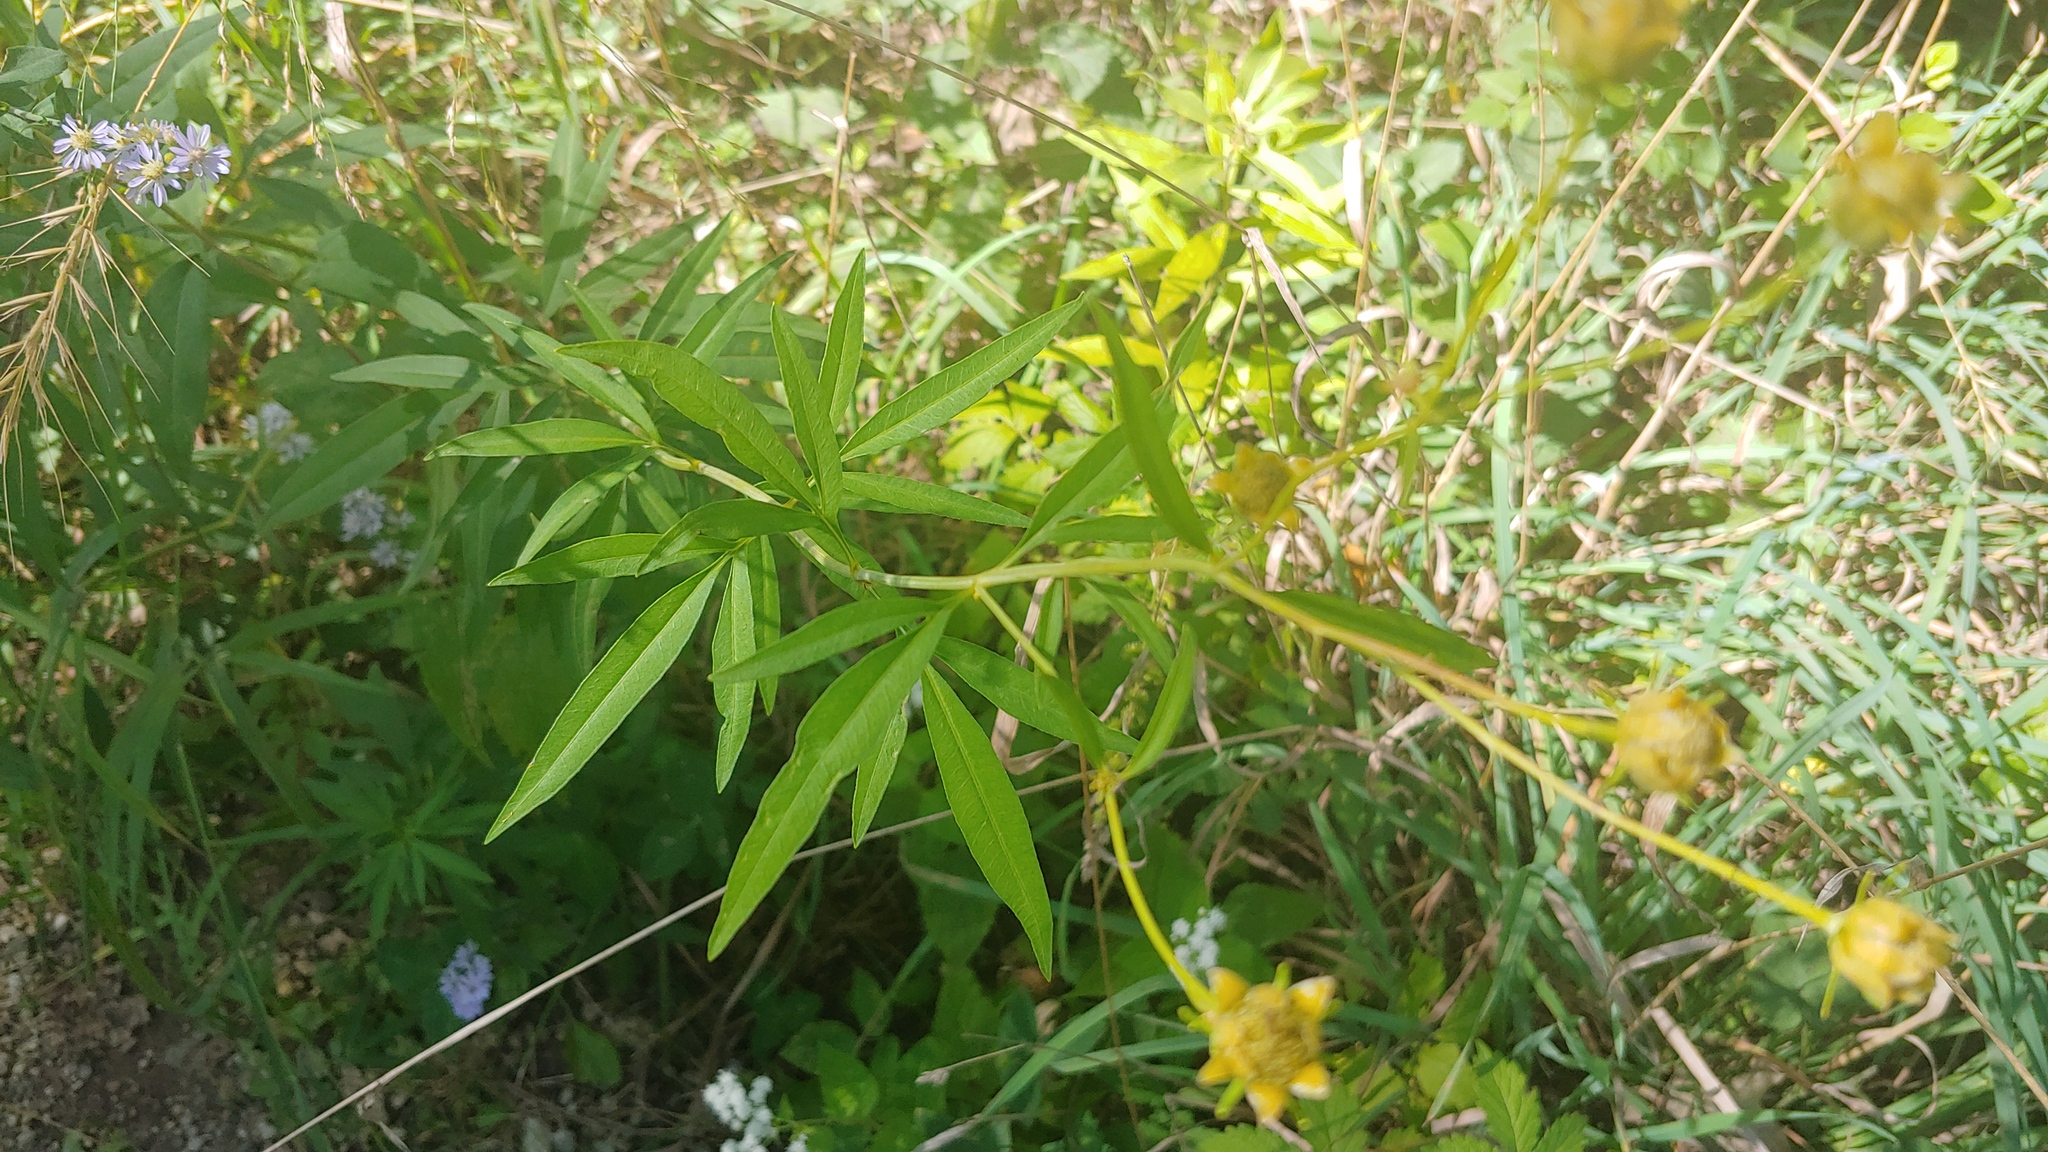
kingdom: Plantae
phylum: Tracheophyta
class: Magnoliopsida
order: Asterales
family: Asteraceae
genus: Coreopsis
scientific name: Coreopsis tripteris
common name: Tall coreopsis
